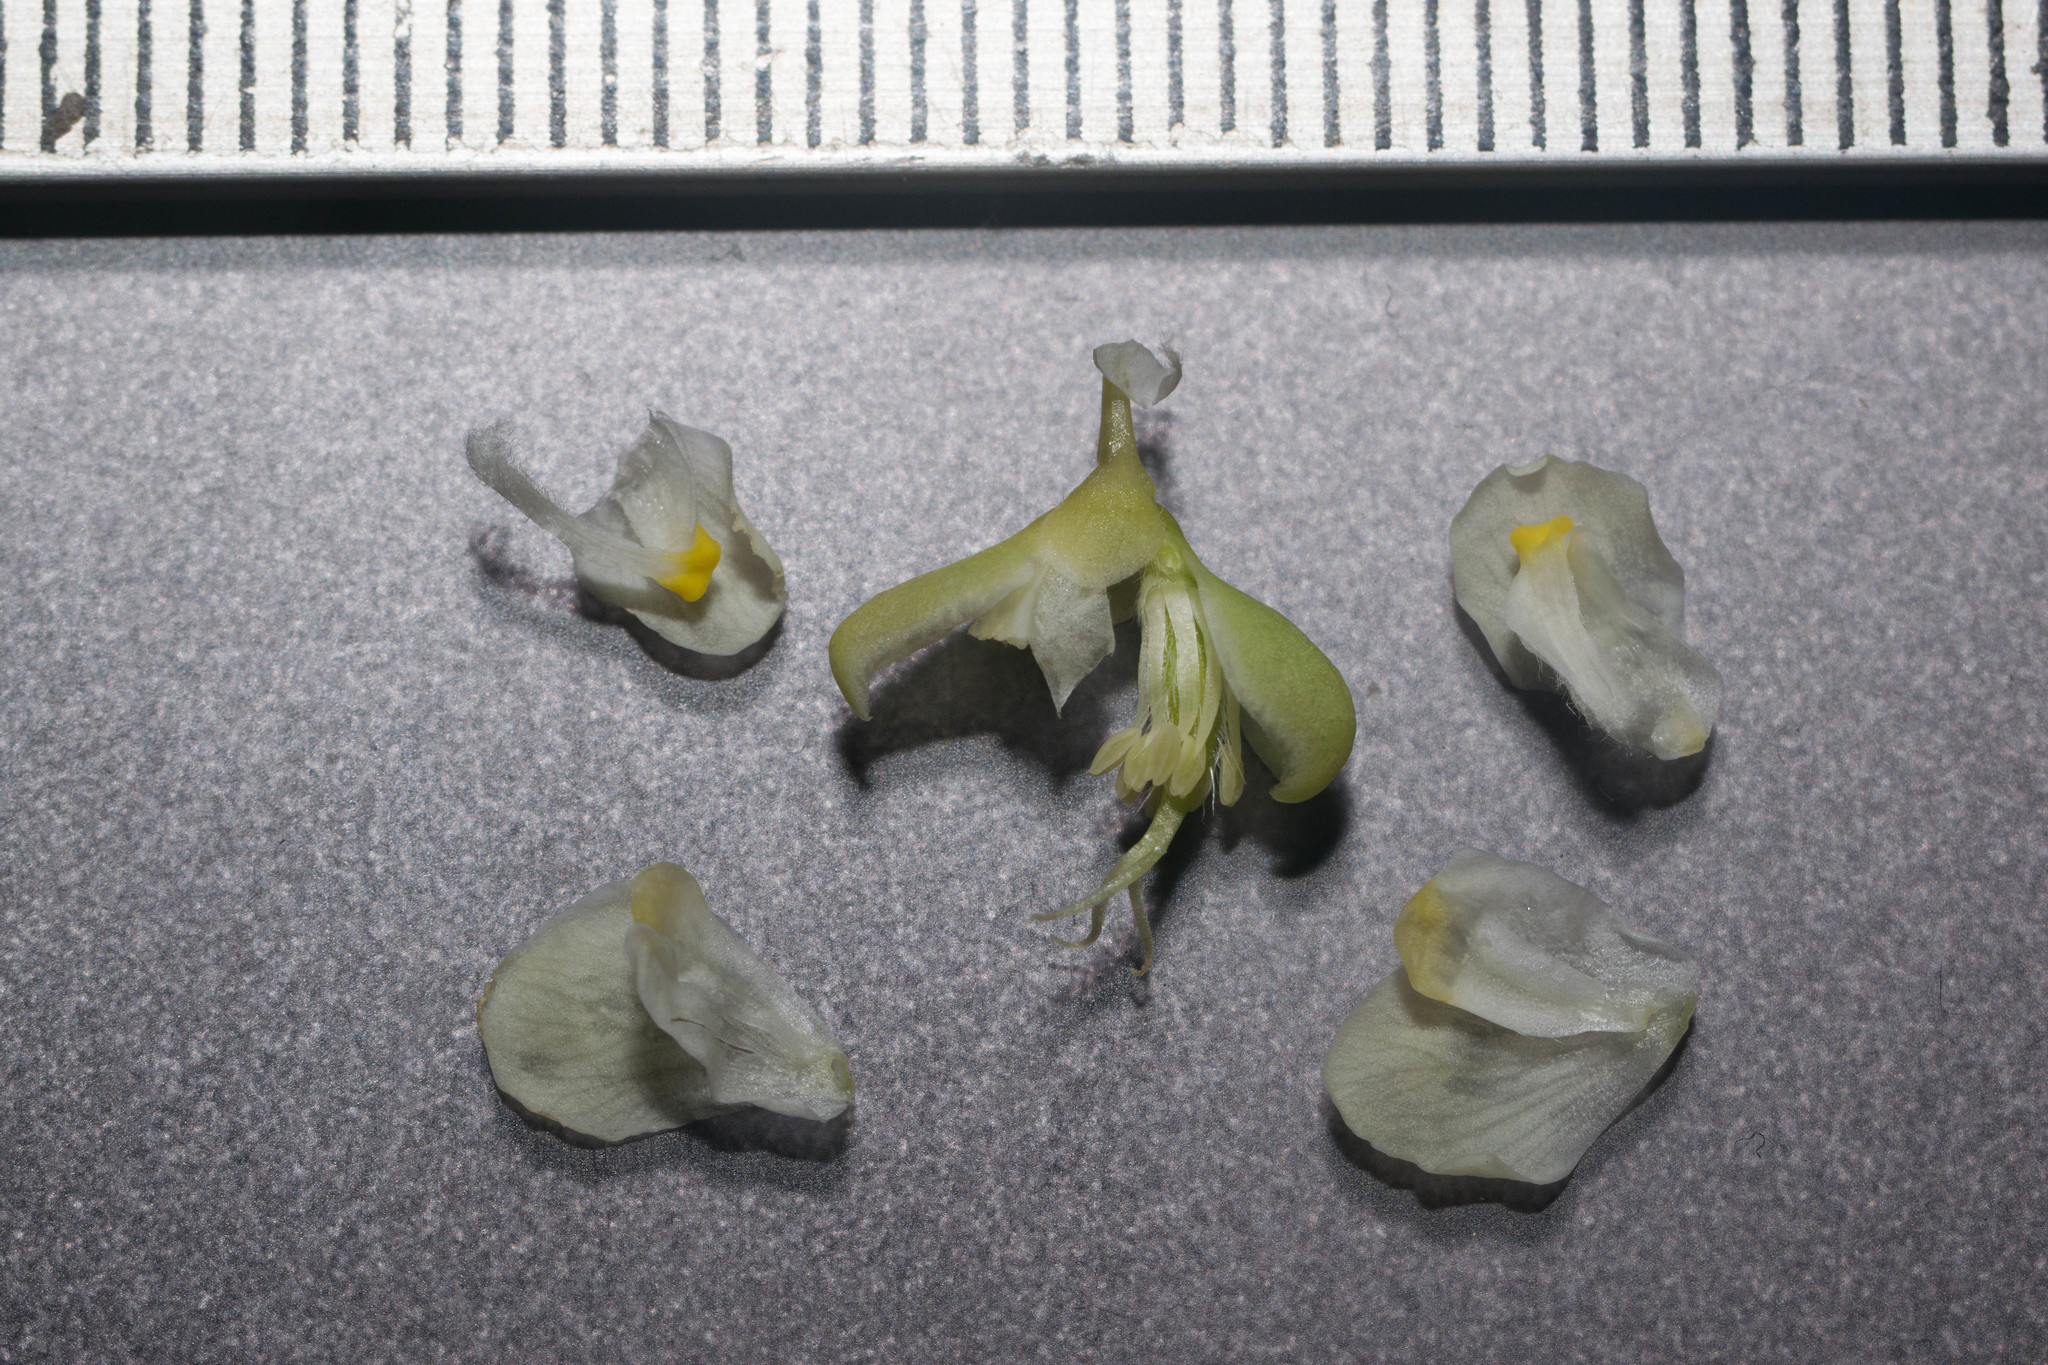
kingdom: Plantae
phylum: Tracheophyta
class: Magnoliopsida
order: Sapindales
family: Sapindaceae
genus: Cardiospermum
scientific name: Cardiospermum grandiflorum
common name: Balloon vine
